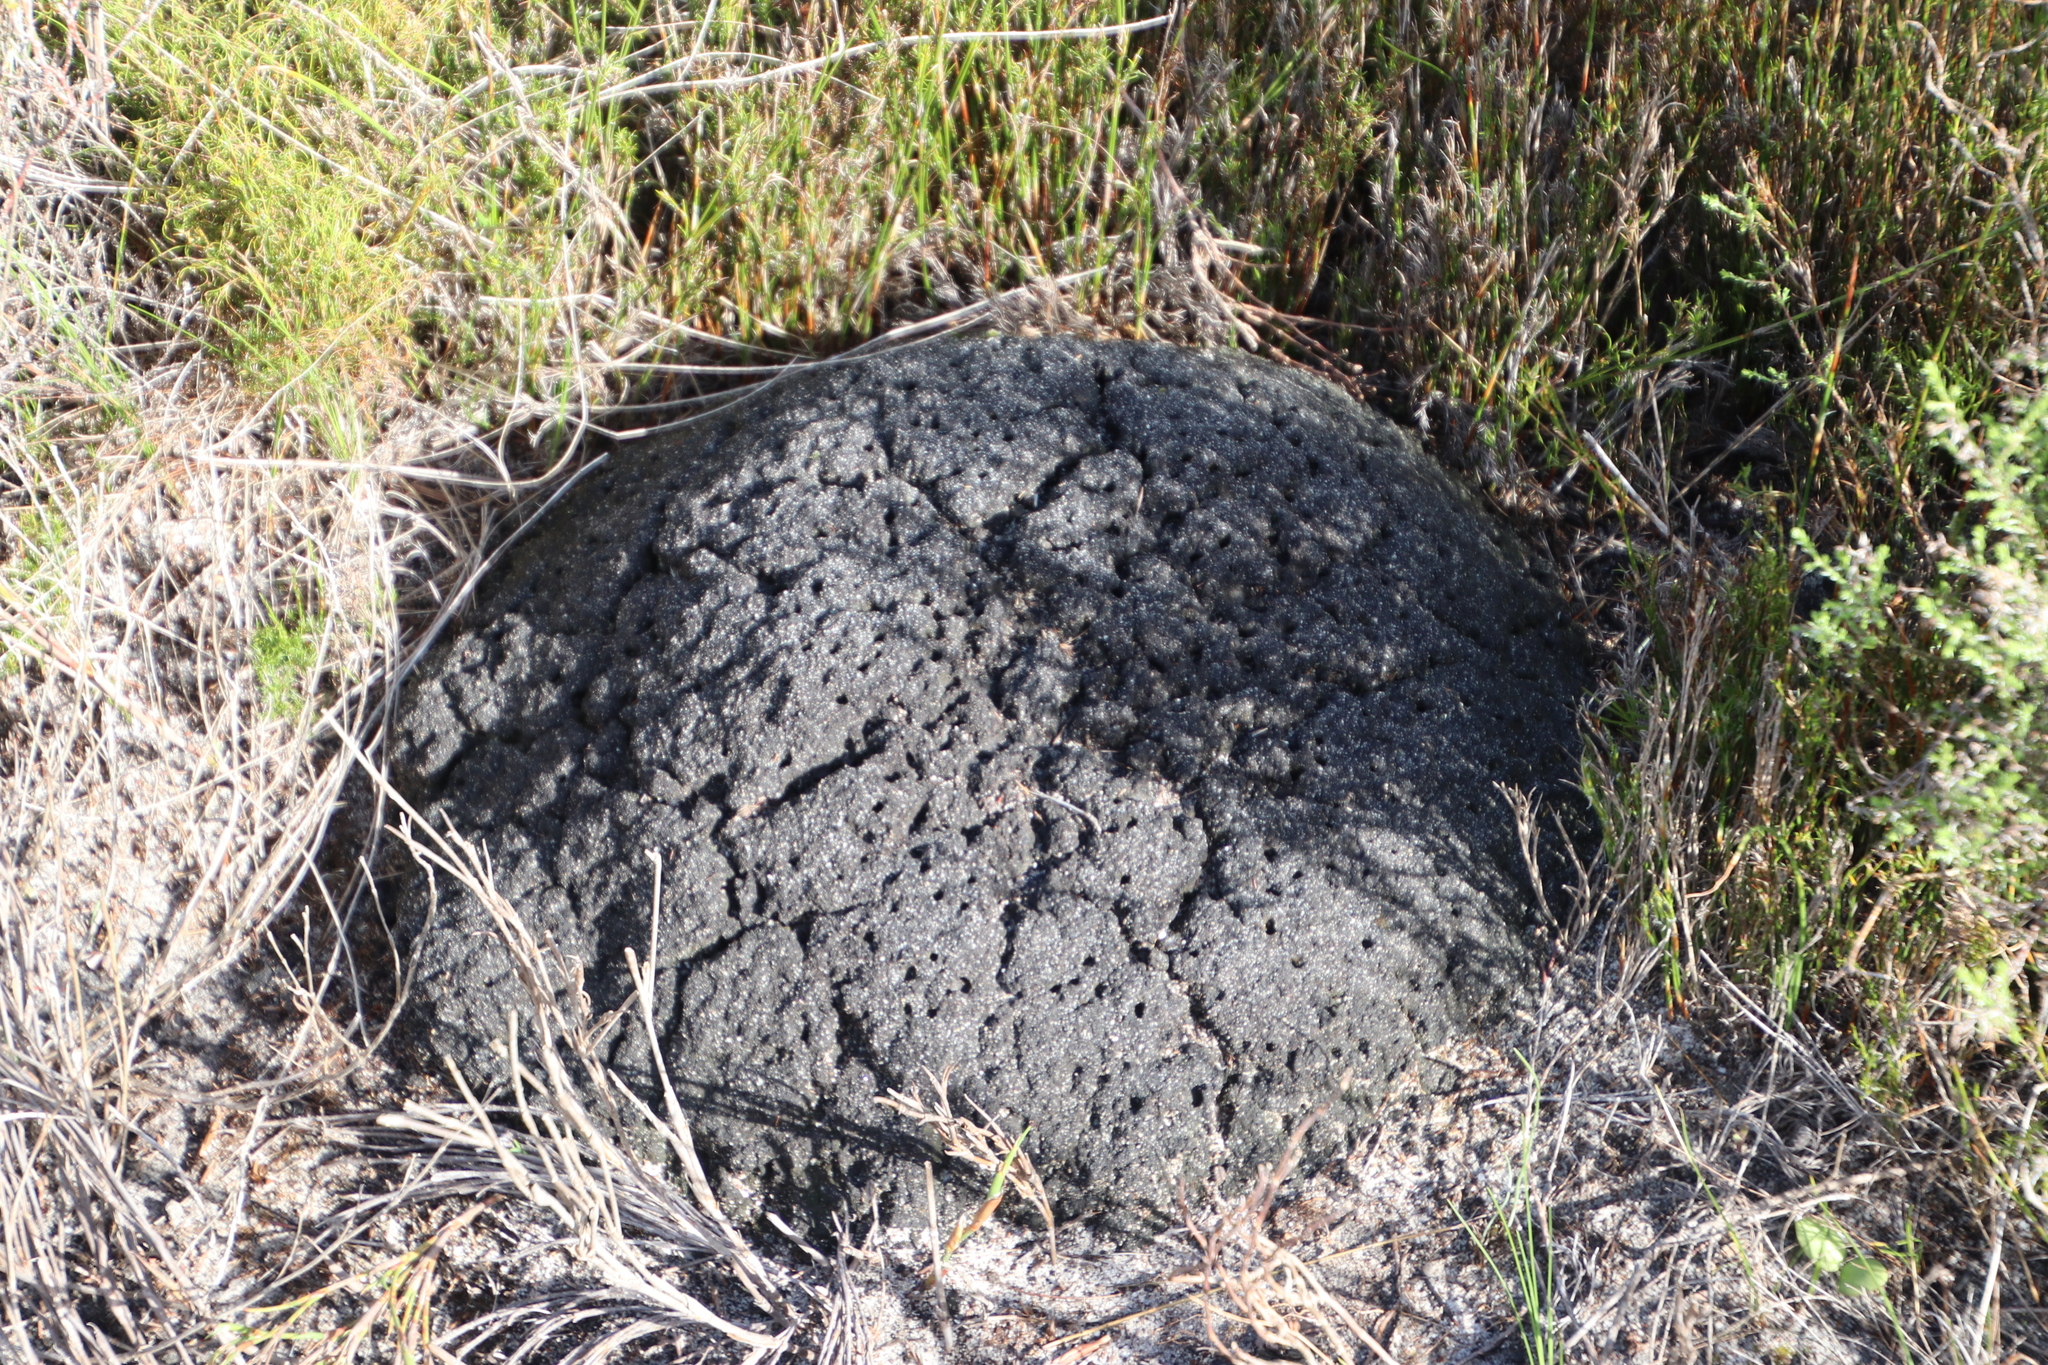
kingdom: Animalia
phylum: Arthropoda
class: Insecta
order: Blattodea
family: Termitidae
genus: Amitermes
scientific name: Amitermes hastatus
